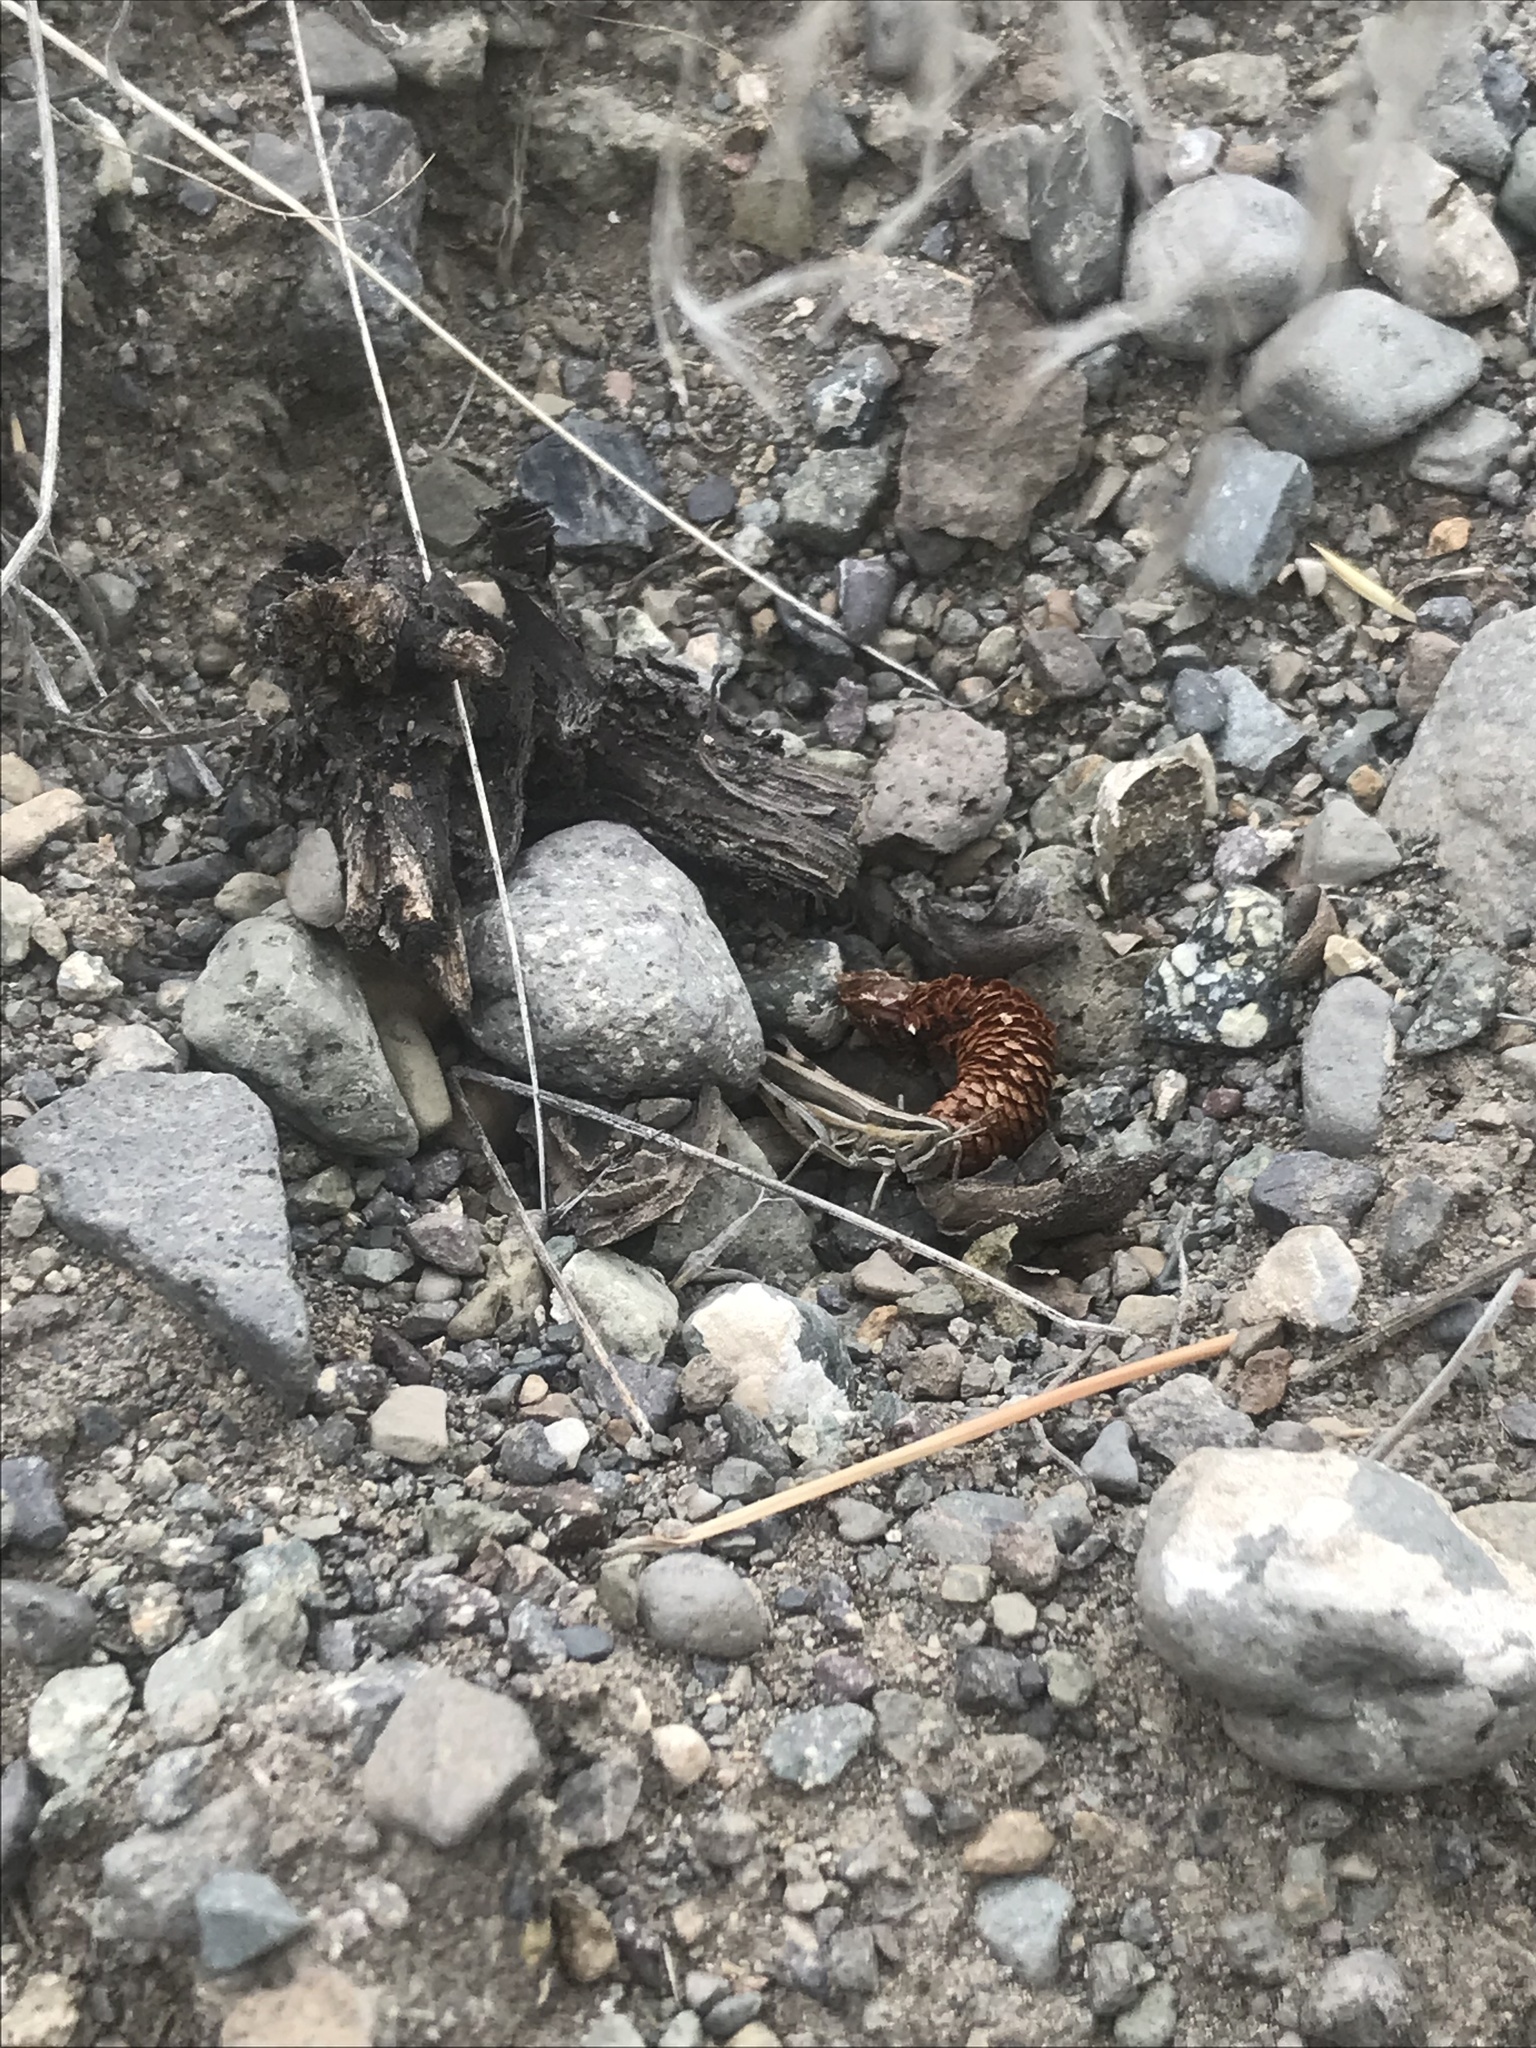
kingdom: Animalia
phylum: Arthropoda
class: Insecta
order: Orthoptera
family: Acrididae
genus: Amphitornus
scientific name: Amphitornus coloradus
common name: Striped grasshopper
